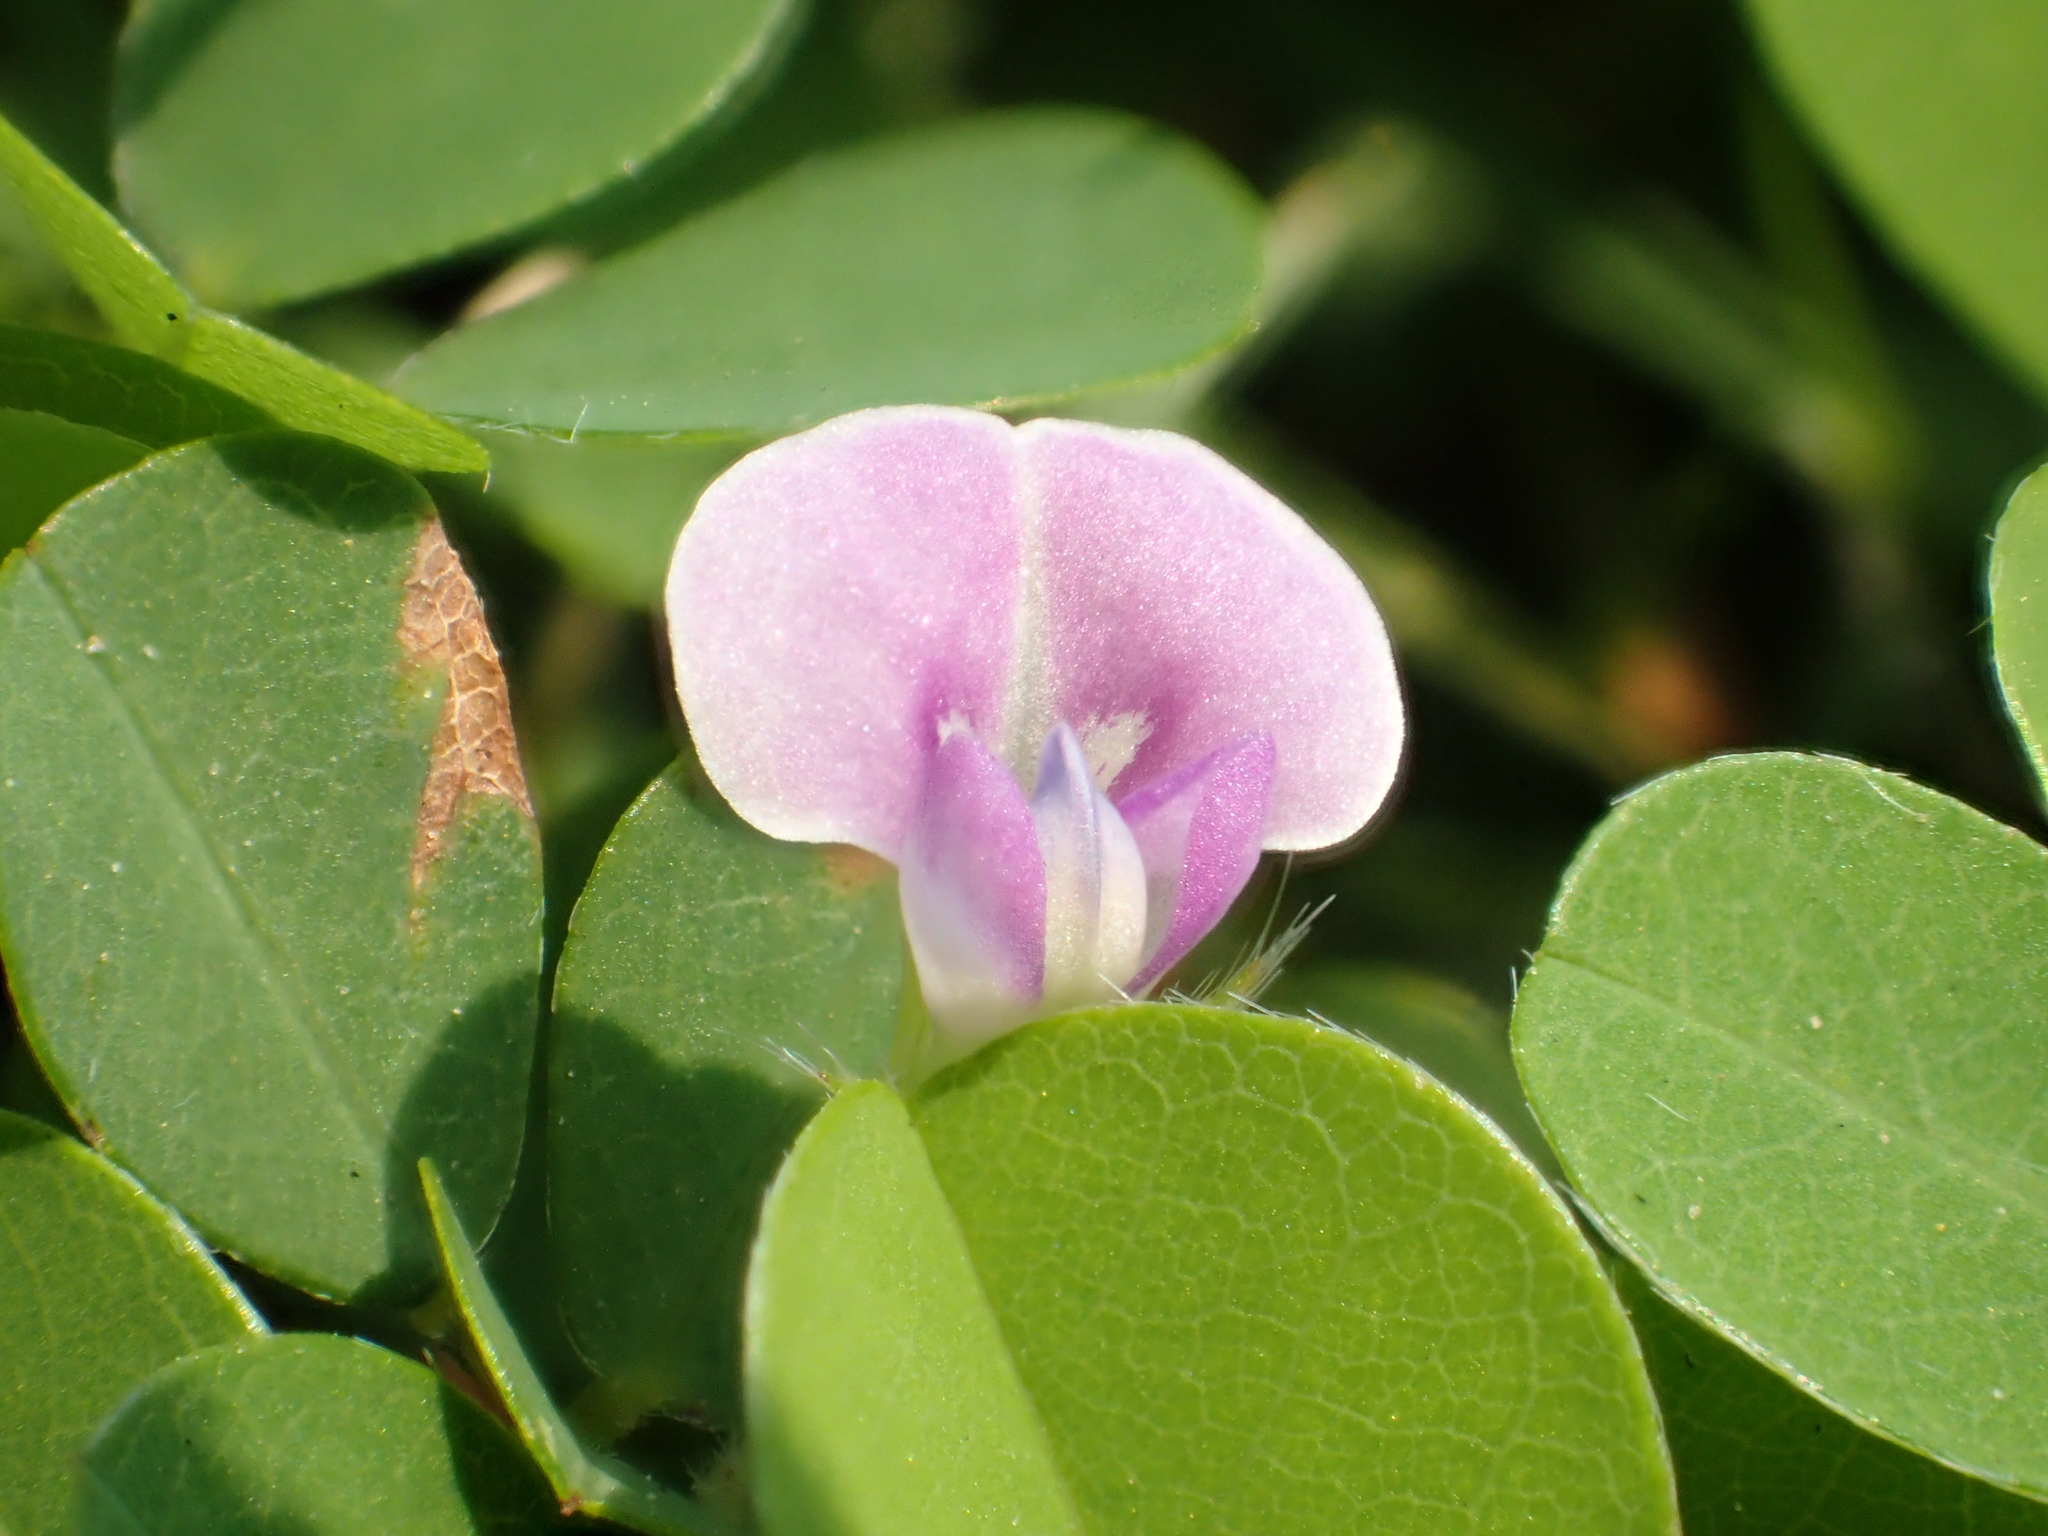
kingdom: Plantae
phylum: Tracheophyta
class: Magnoliopsida
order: Fabales
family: Fabaceae
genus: Grona
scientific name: Grona triflora
